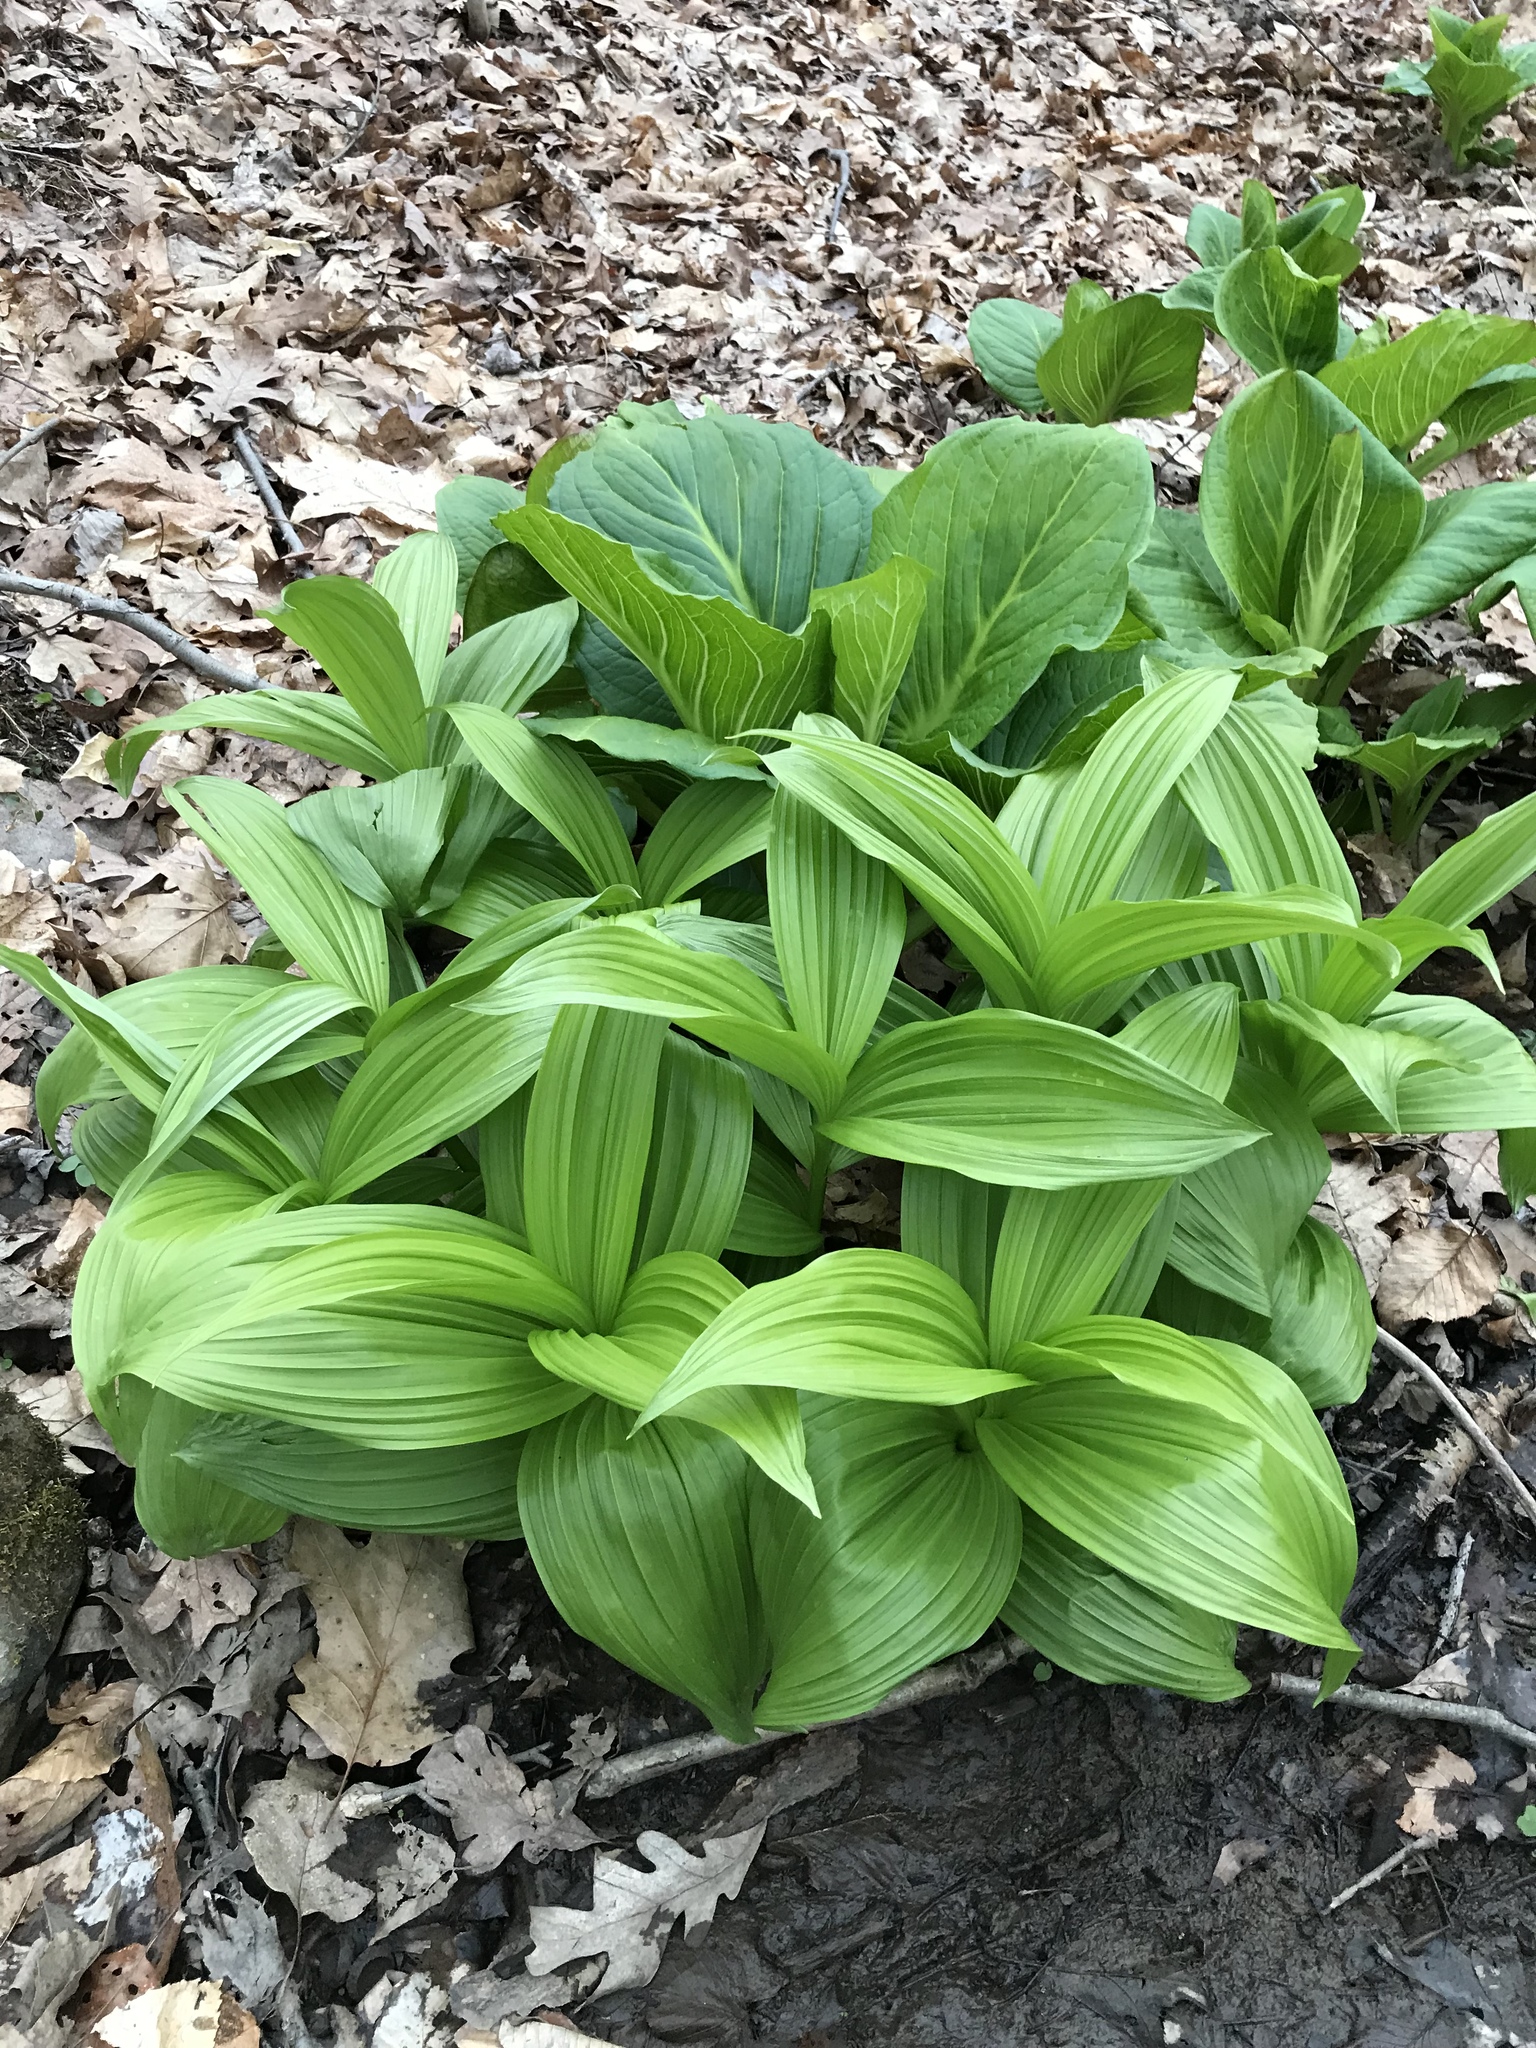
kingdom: Plantae
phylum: Tracheophyta
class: Liliopsida
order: Liliales
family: Melanthiaceae
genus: Veratrum
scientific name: Veratrum viride
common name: American false hellebore
